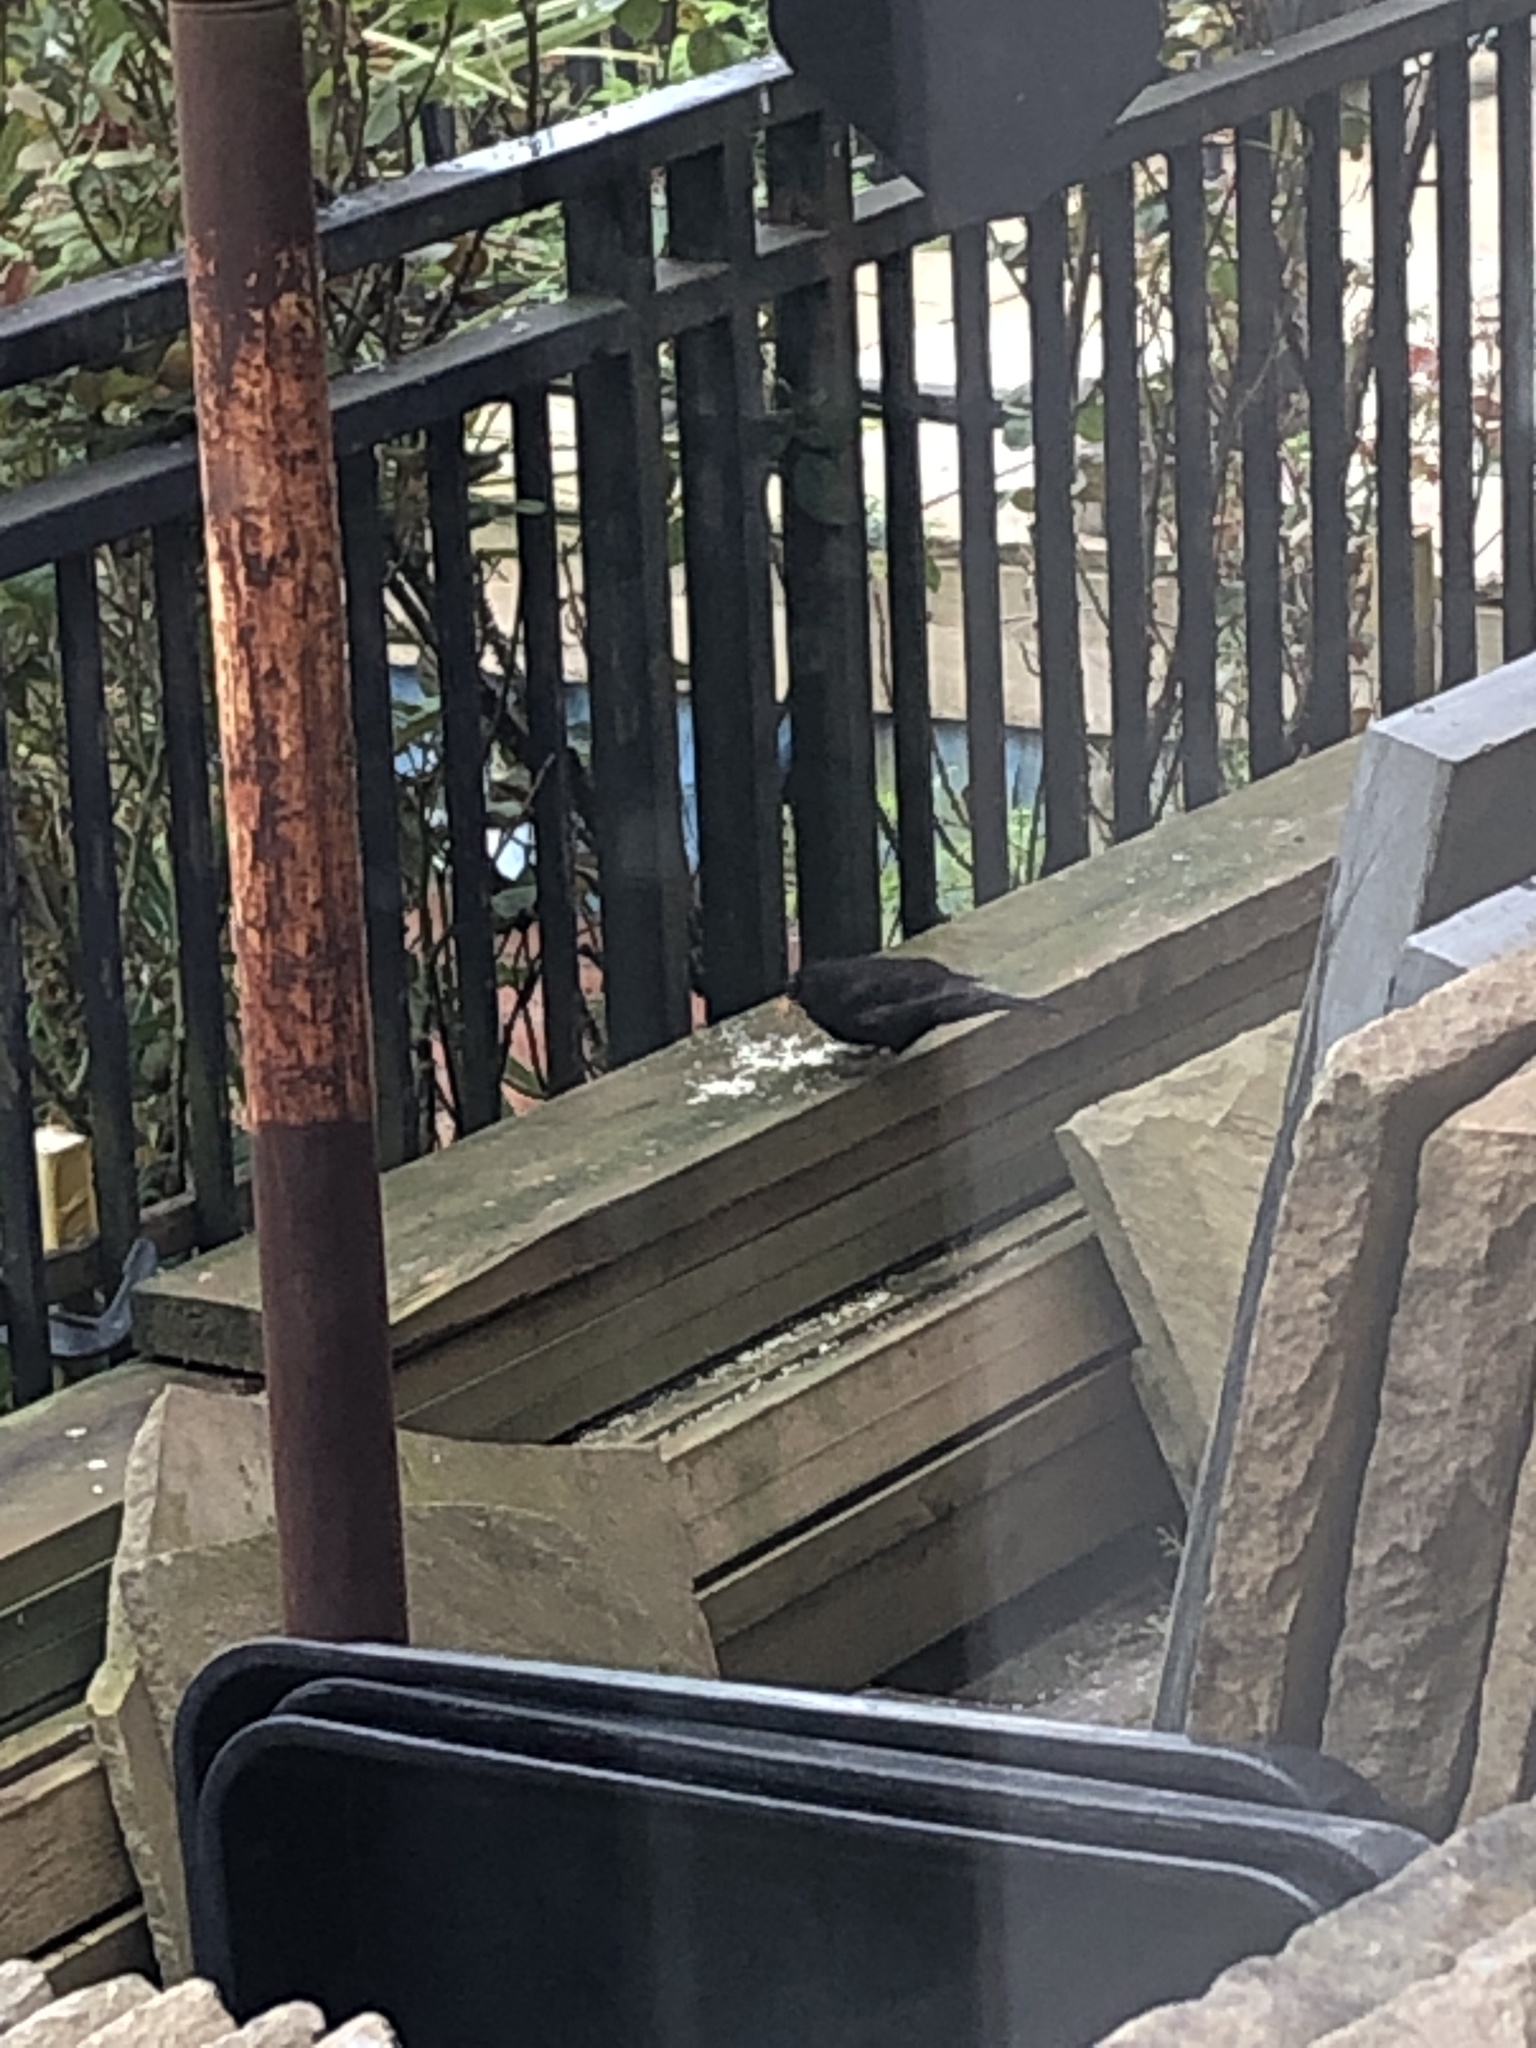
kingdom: Animalia
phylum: Chordata
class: Aves
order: Passeriformes
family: Turdidae
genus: Turdus
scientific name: Turdus merula
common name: Common blackbird
